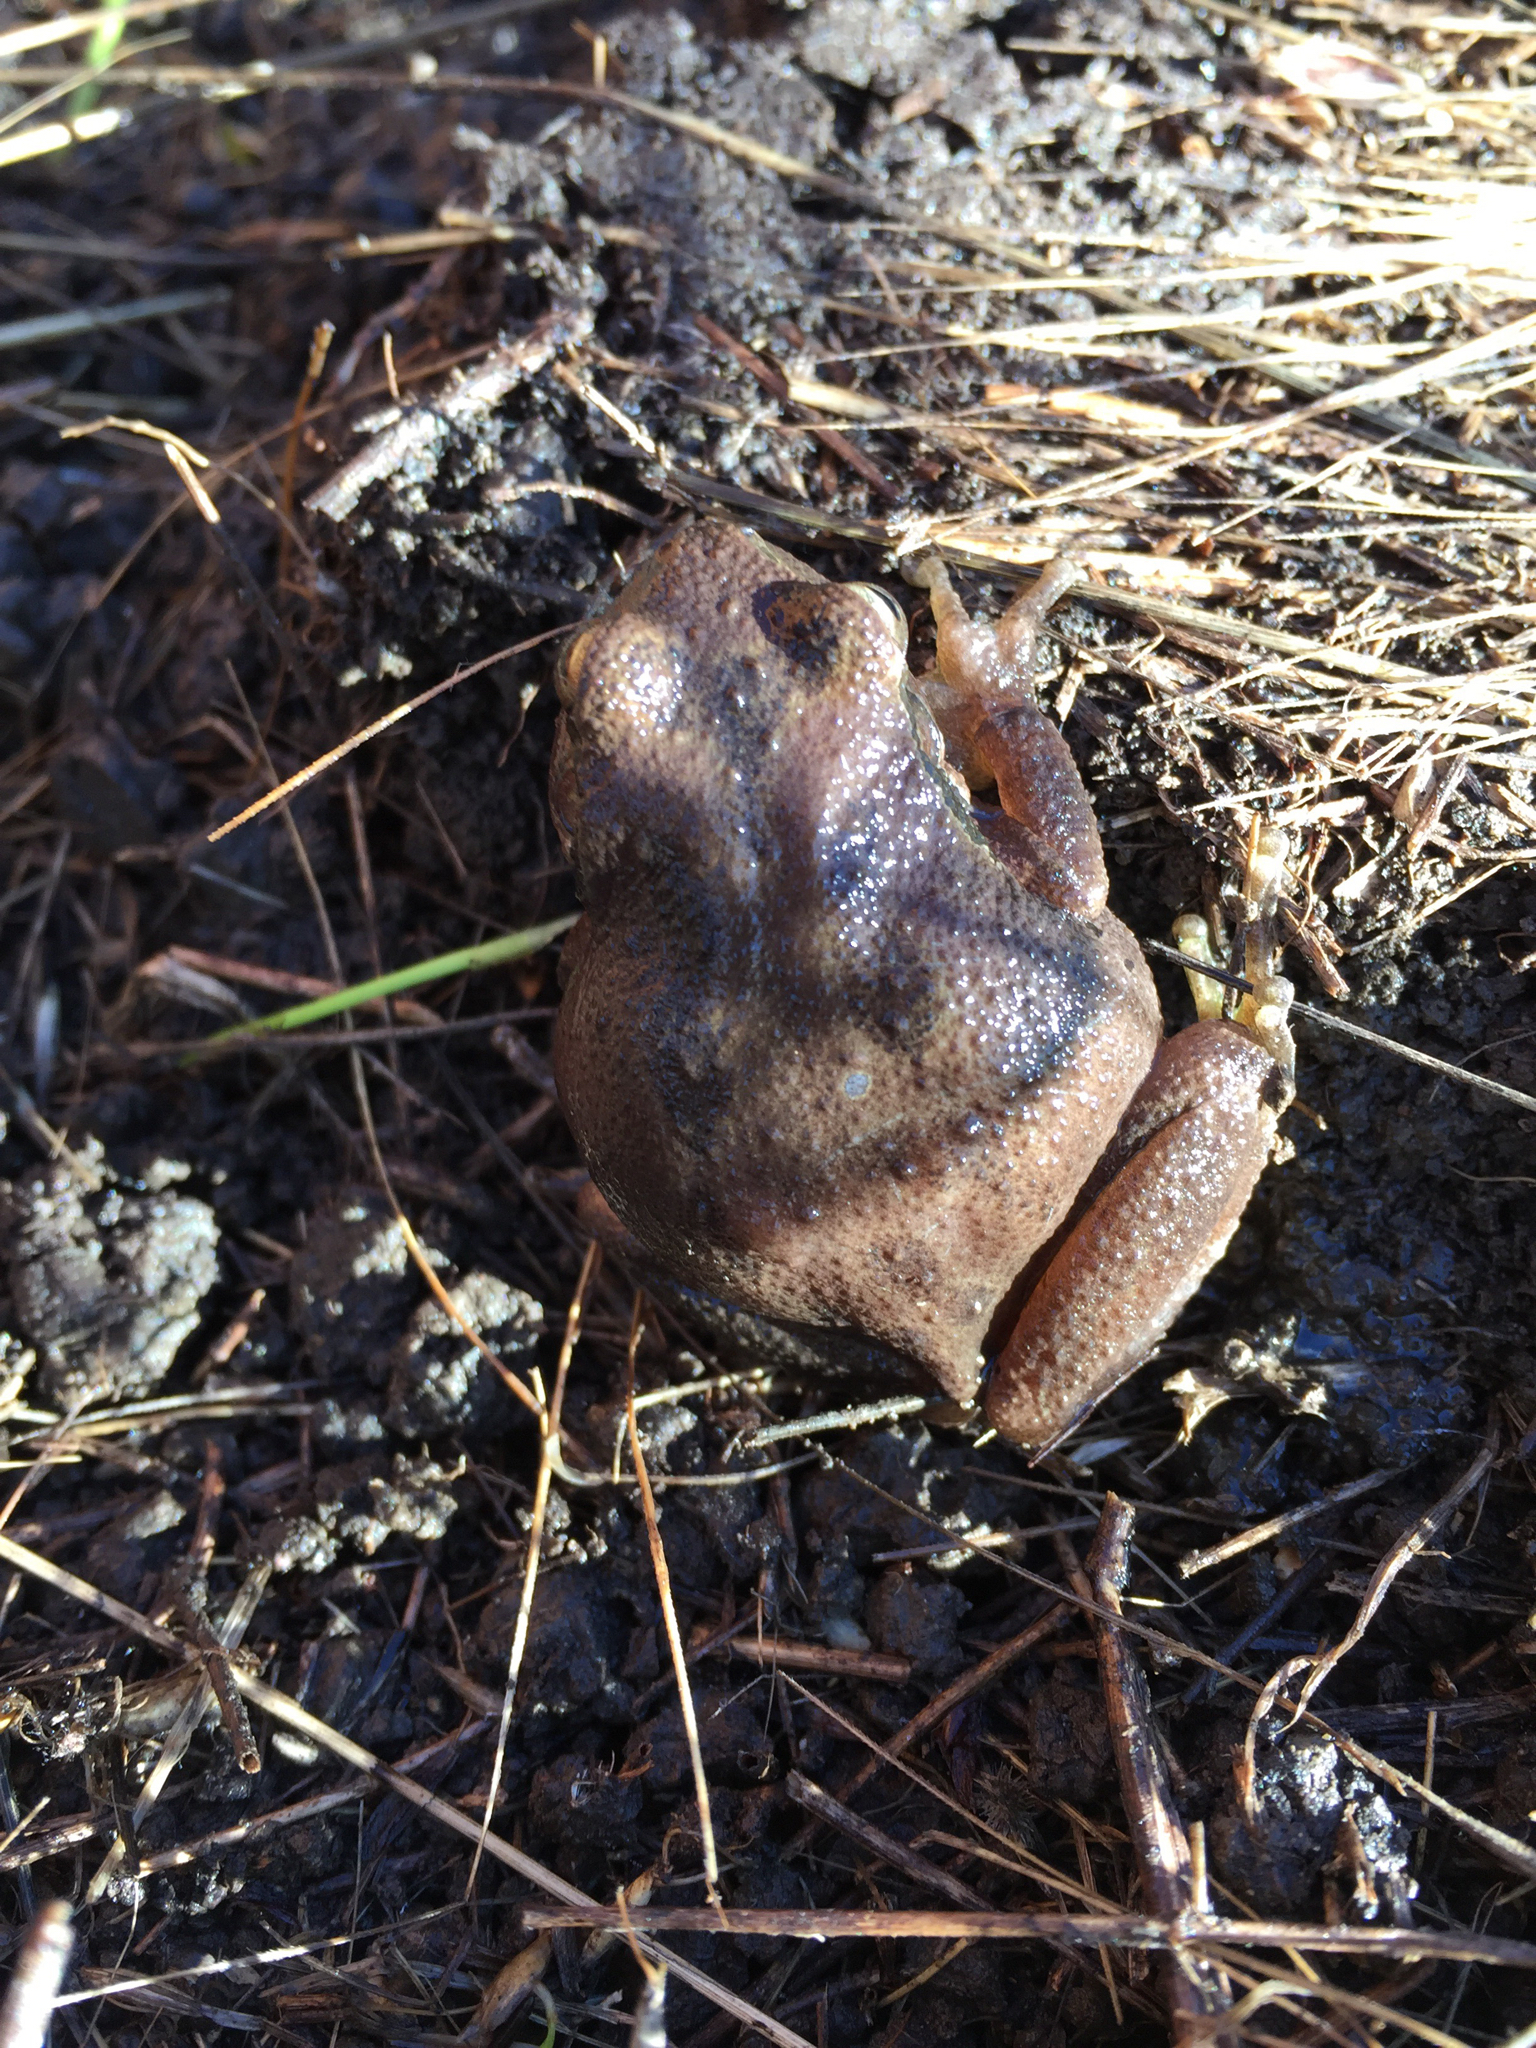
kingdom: Animalia
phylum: Chordata
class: Amphibia
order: Anura
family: Hylidae
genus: Pseudacris
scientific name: Pseudacris regilla
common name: Pacific chorus frog
